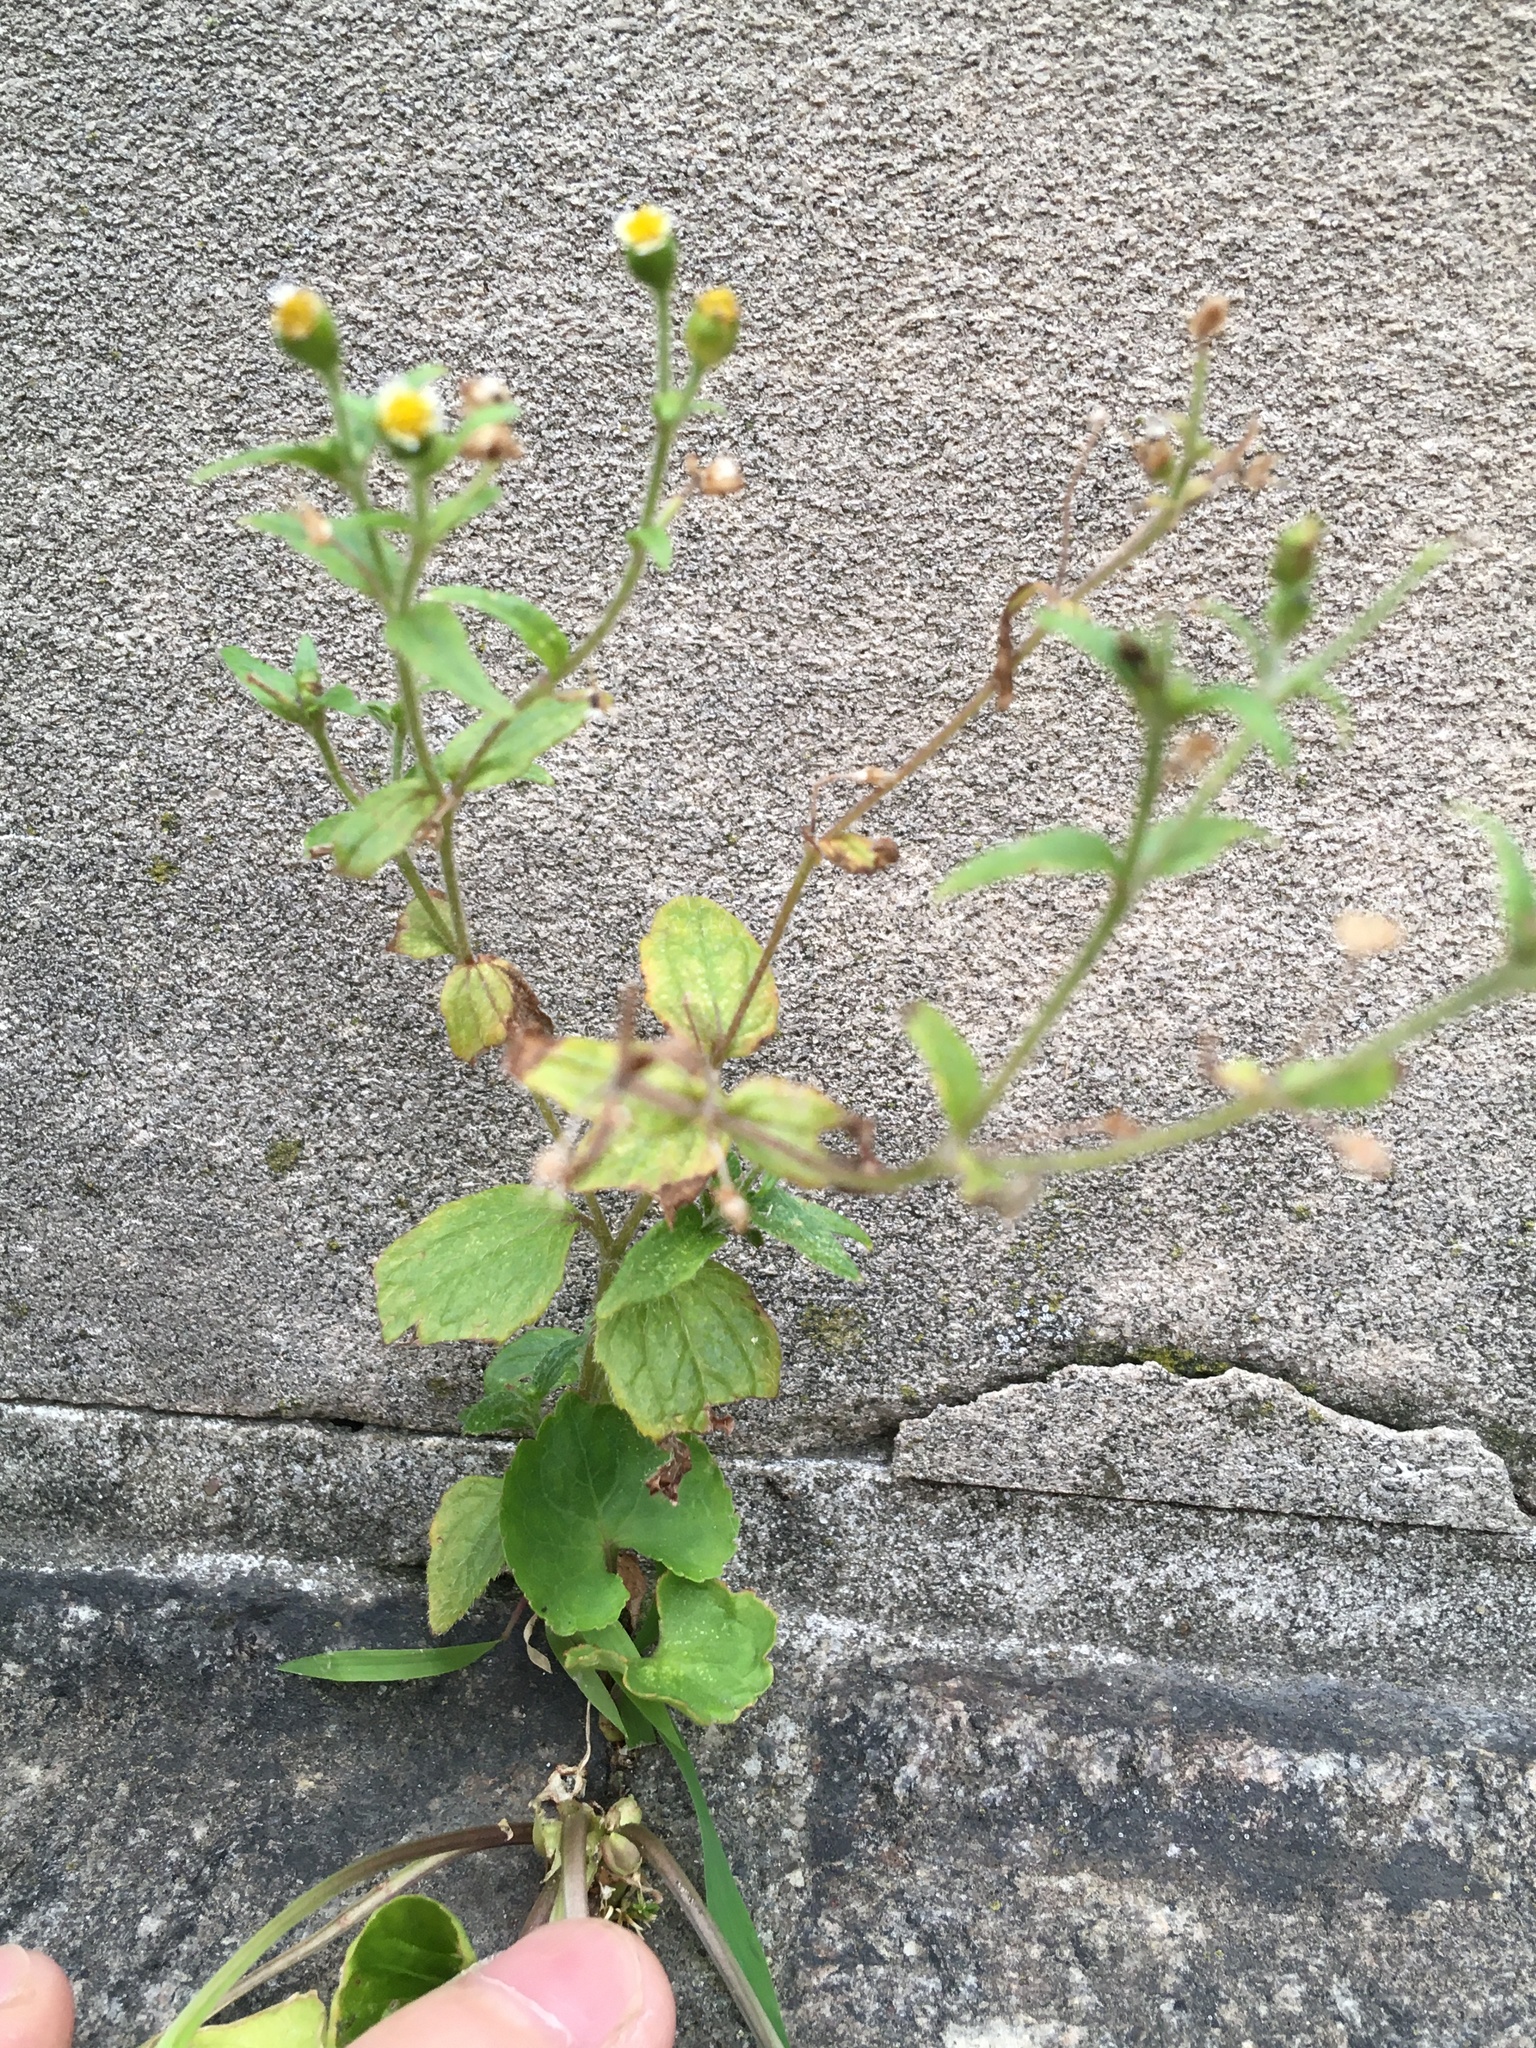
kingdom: Plantae
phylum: Tracheophyta
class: Magnoliopsida
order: Asterales
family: Asteraceae
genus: Galinsoga
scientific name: Galinsoga quadriradiata
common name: Shaggy soldier
